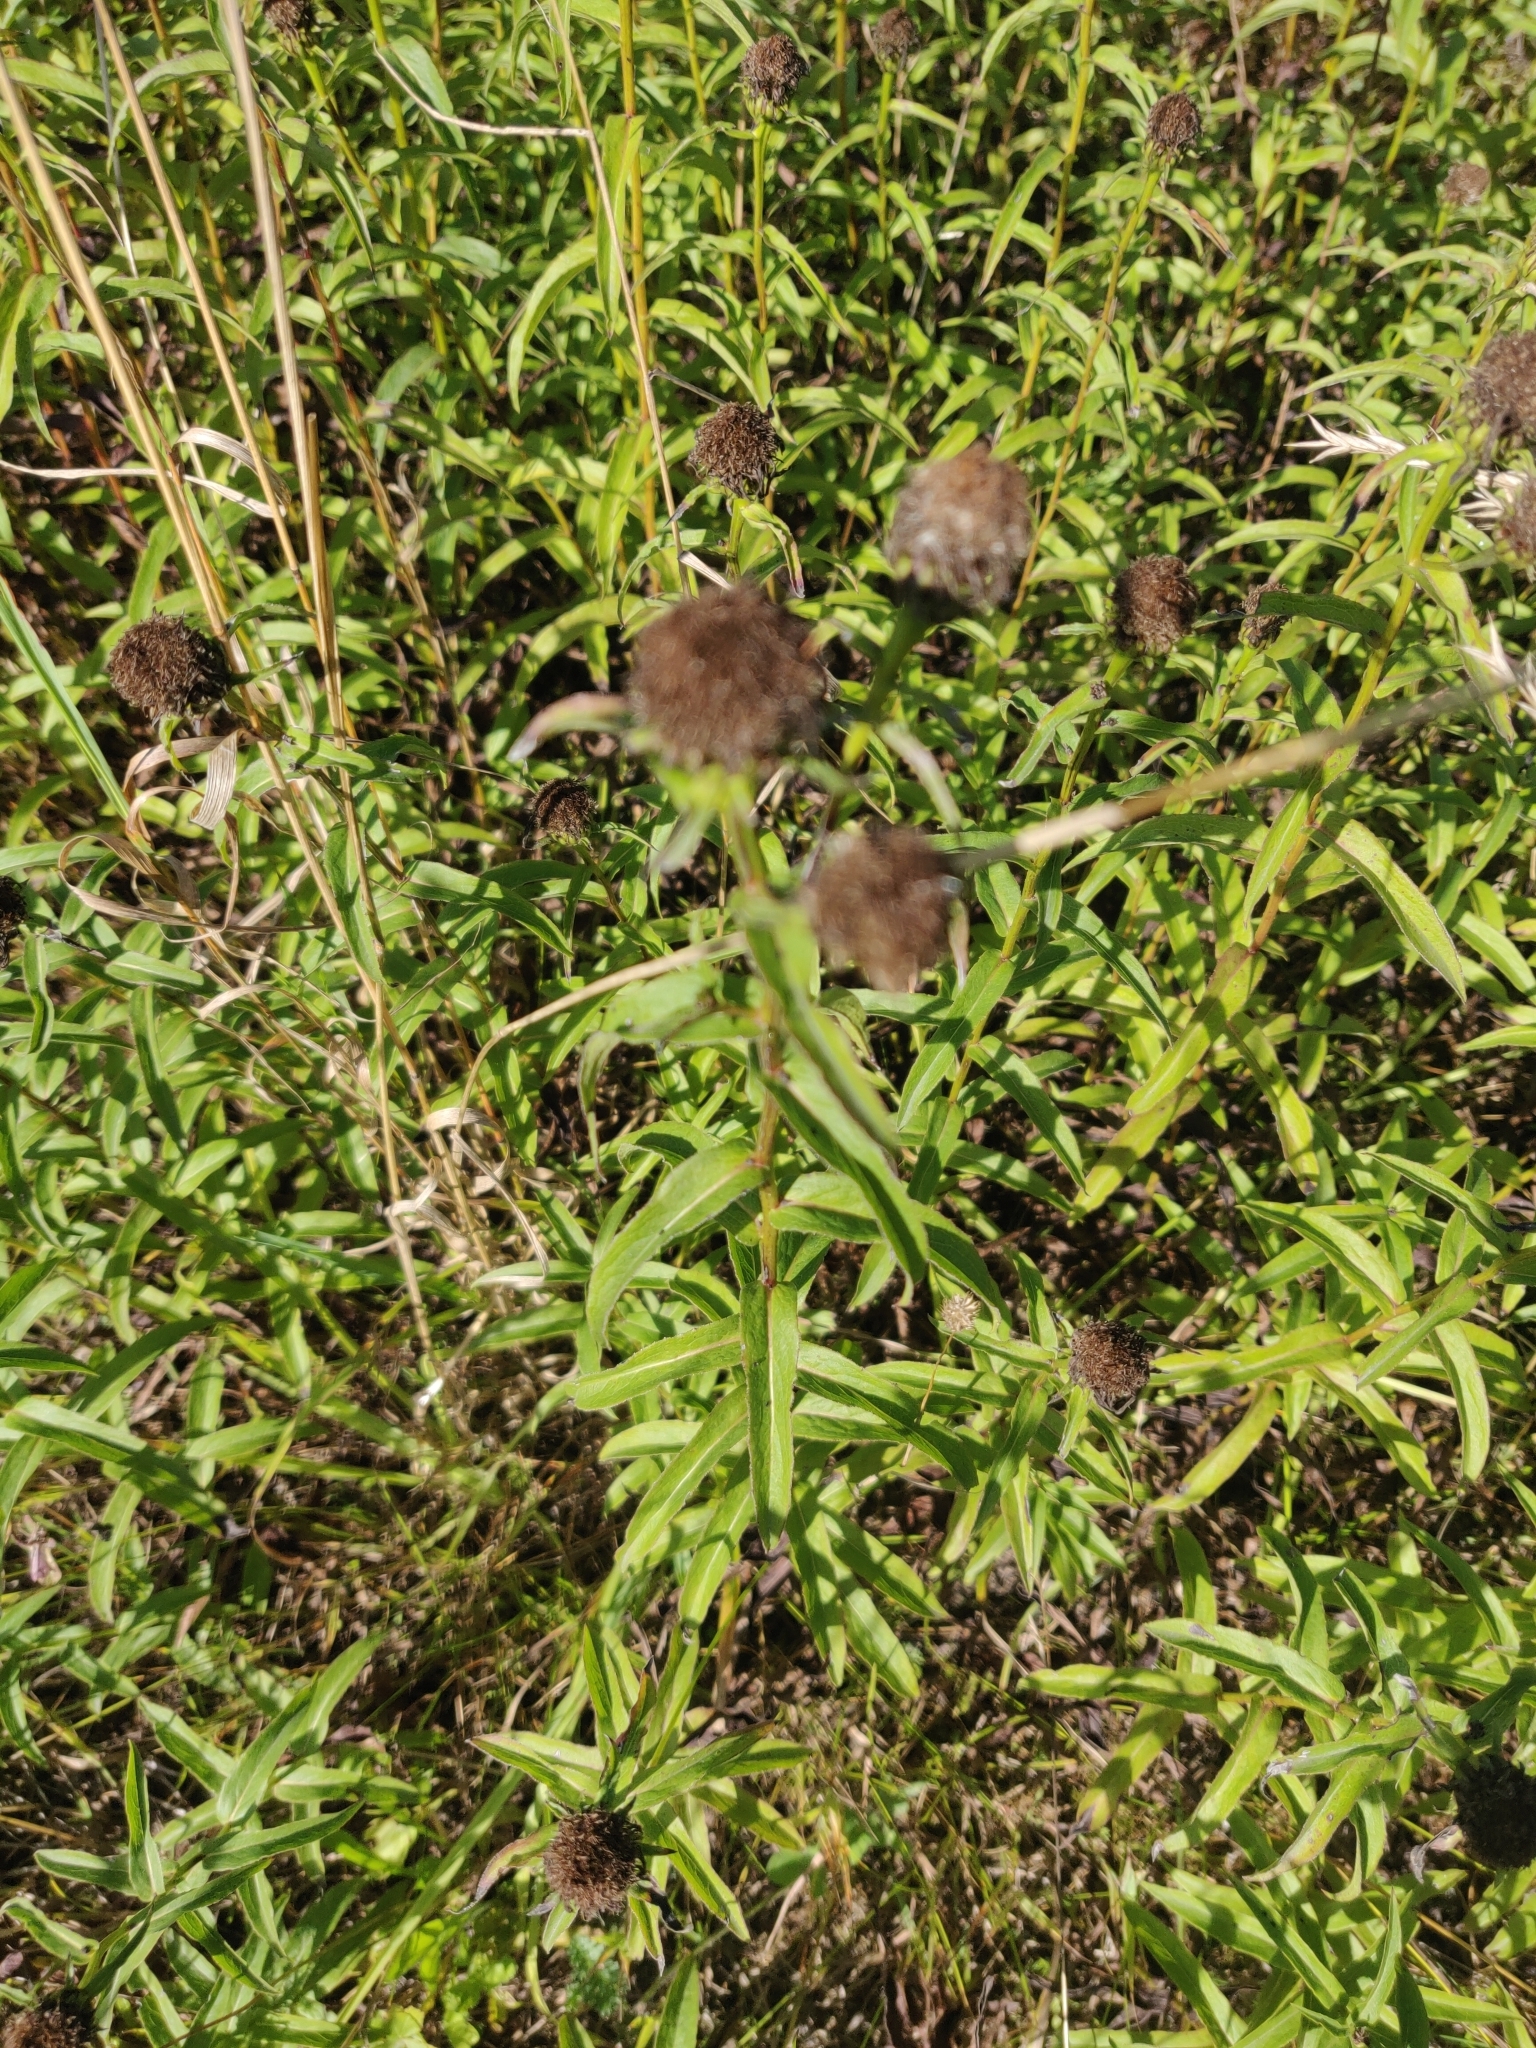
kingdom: Plantae
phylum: Tracheophyta
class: Magnoliopsida
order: Asterales
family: Asteraceae
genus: Pentanema
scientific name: Pentanema salicinum
